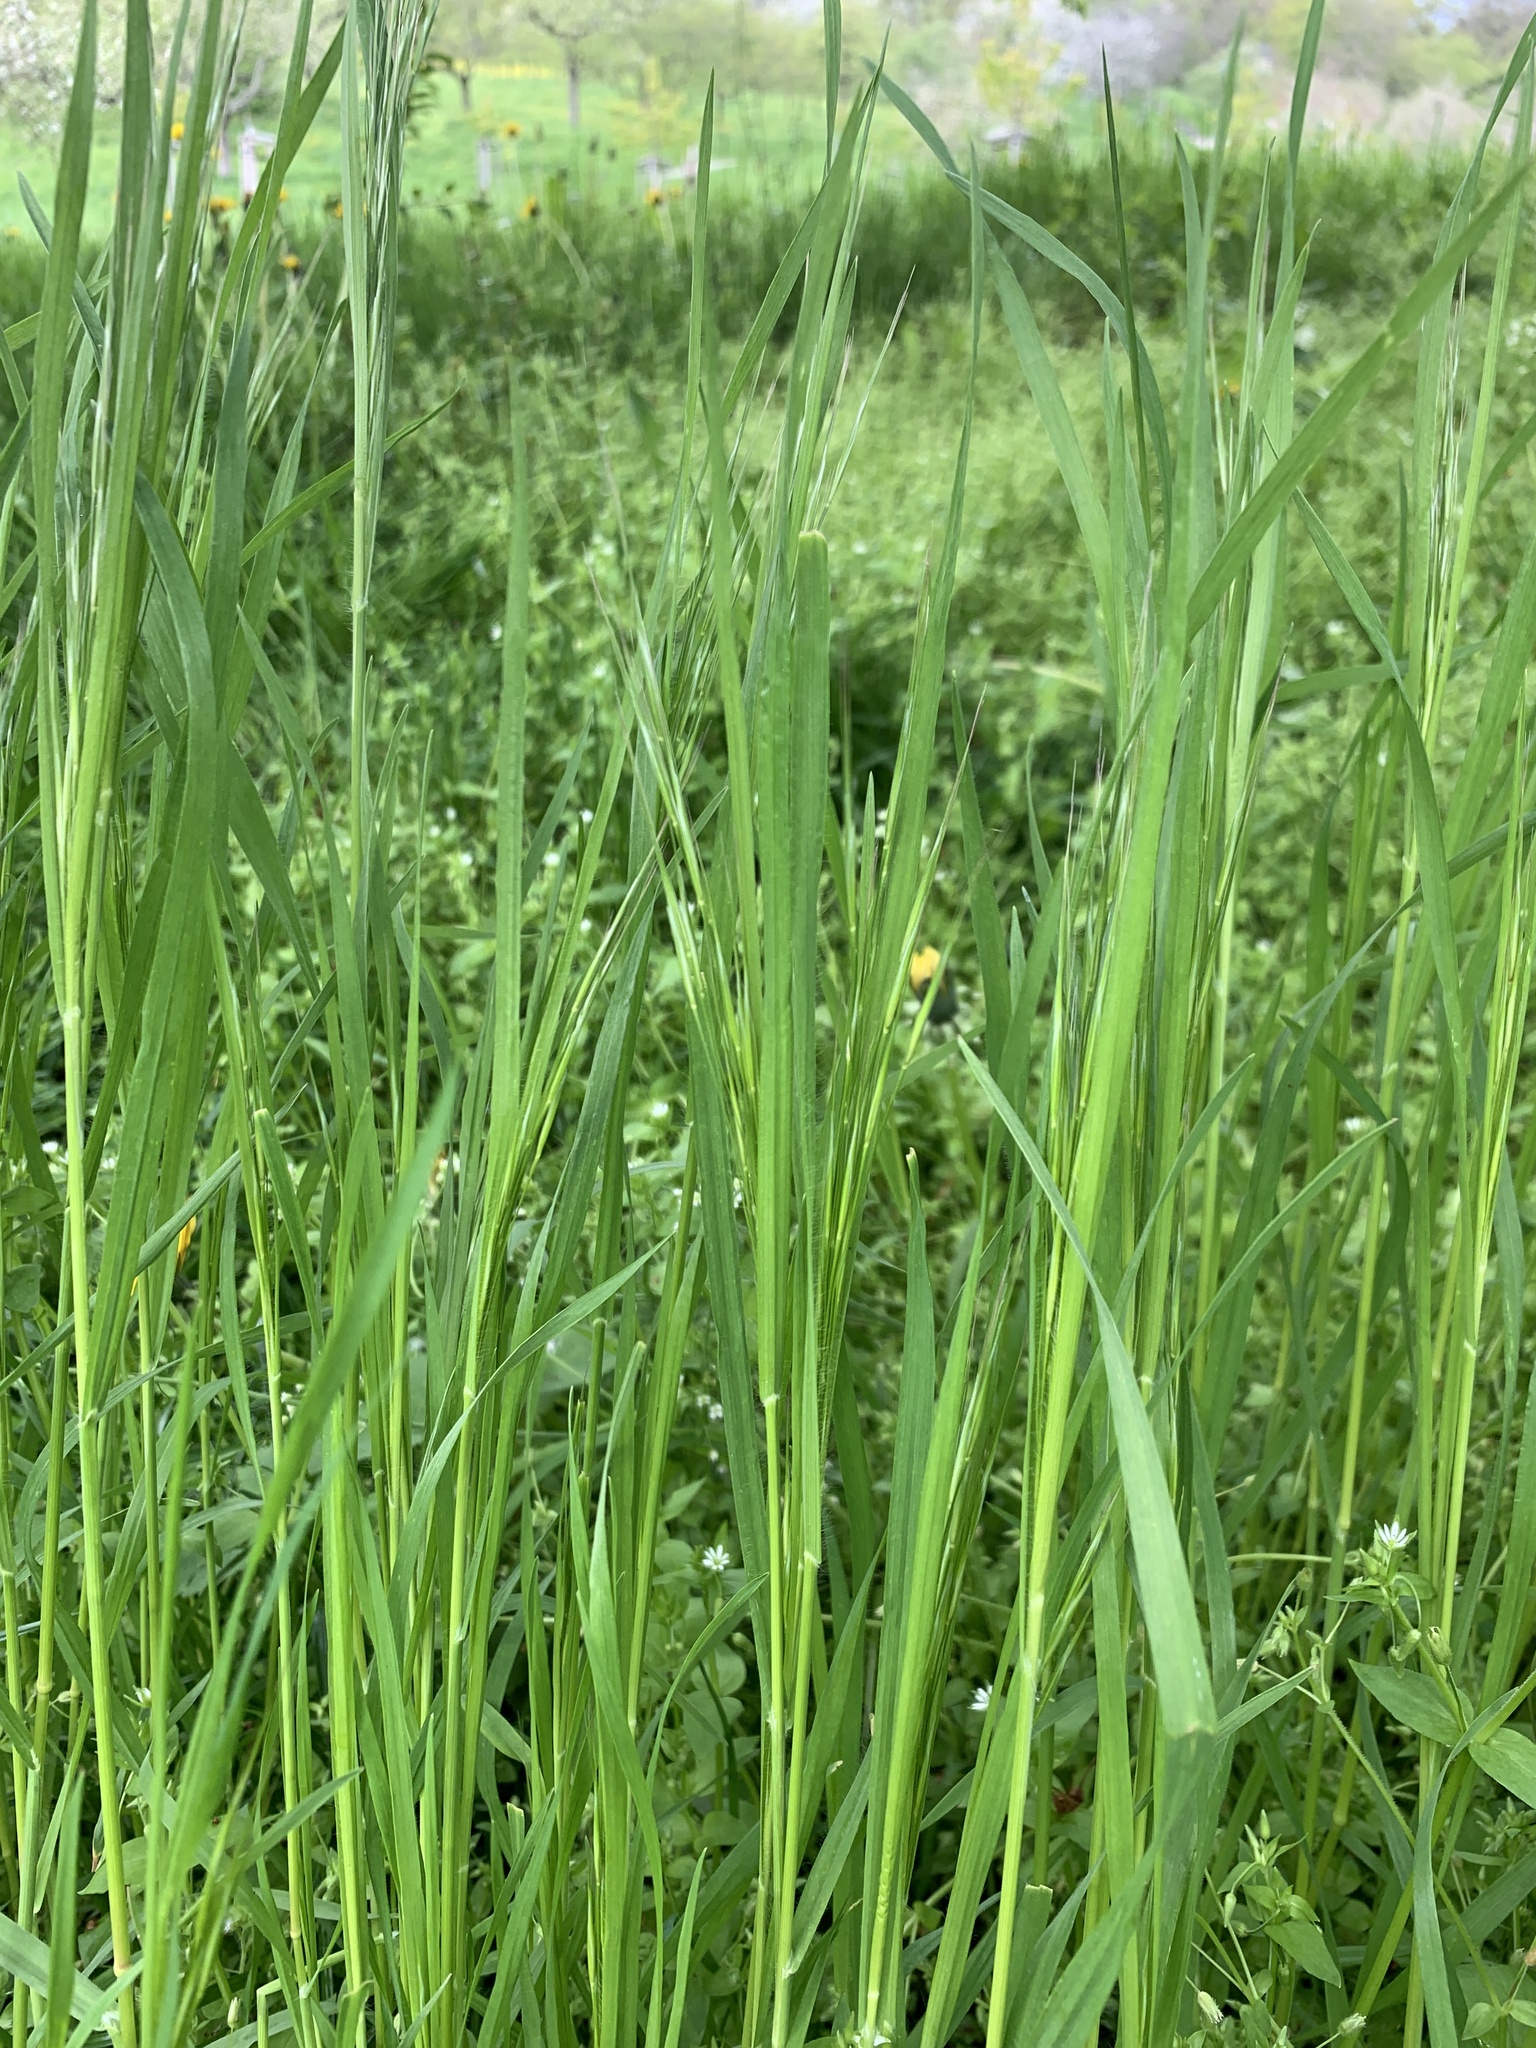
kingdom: Plantae
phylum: Tracheophyta
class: Liliopsida
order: Poales
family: Poaceae
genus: Bromus
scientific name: Bromus sterilis
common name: Poverty brome
